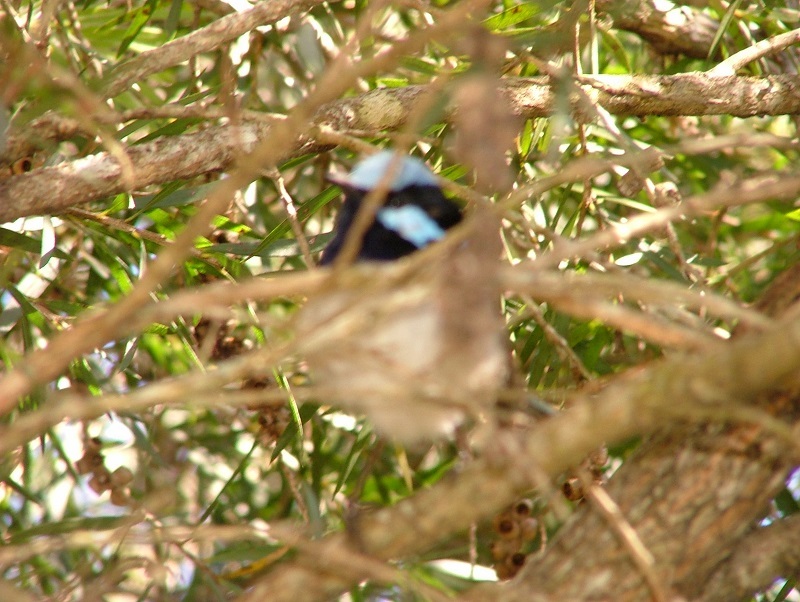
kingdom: Animalia
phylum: Chordata
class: Aves
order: Passeriformes
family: Maluridae
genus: Malurus
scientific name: Malurus cyaneus
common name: Superb fairywren
